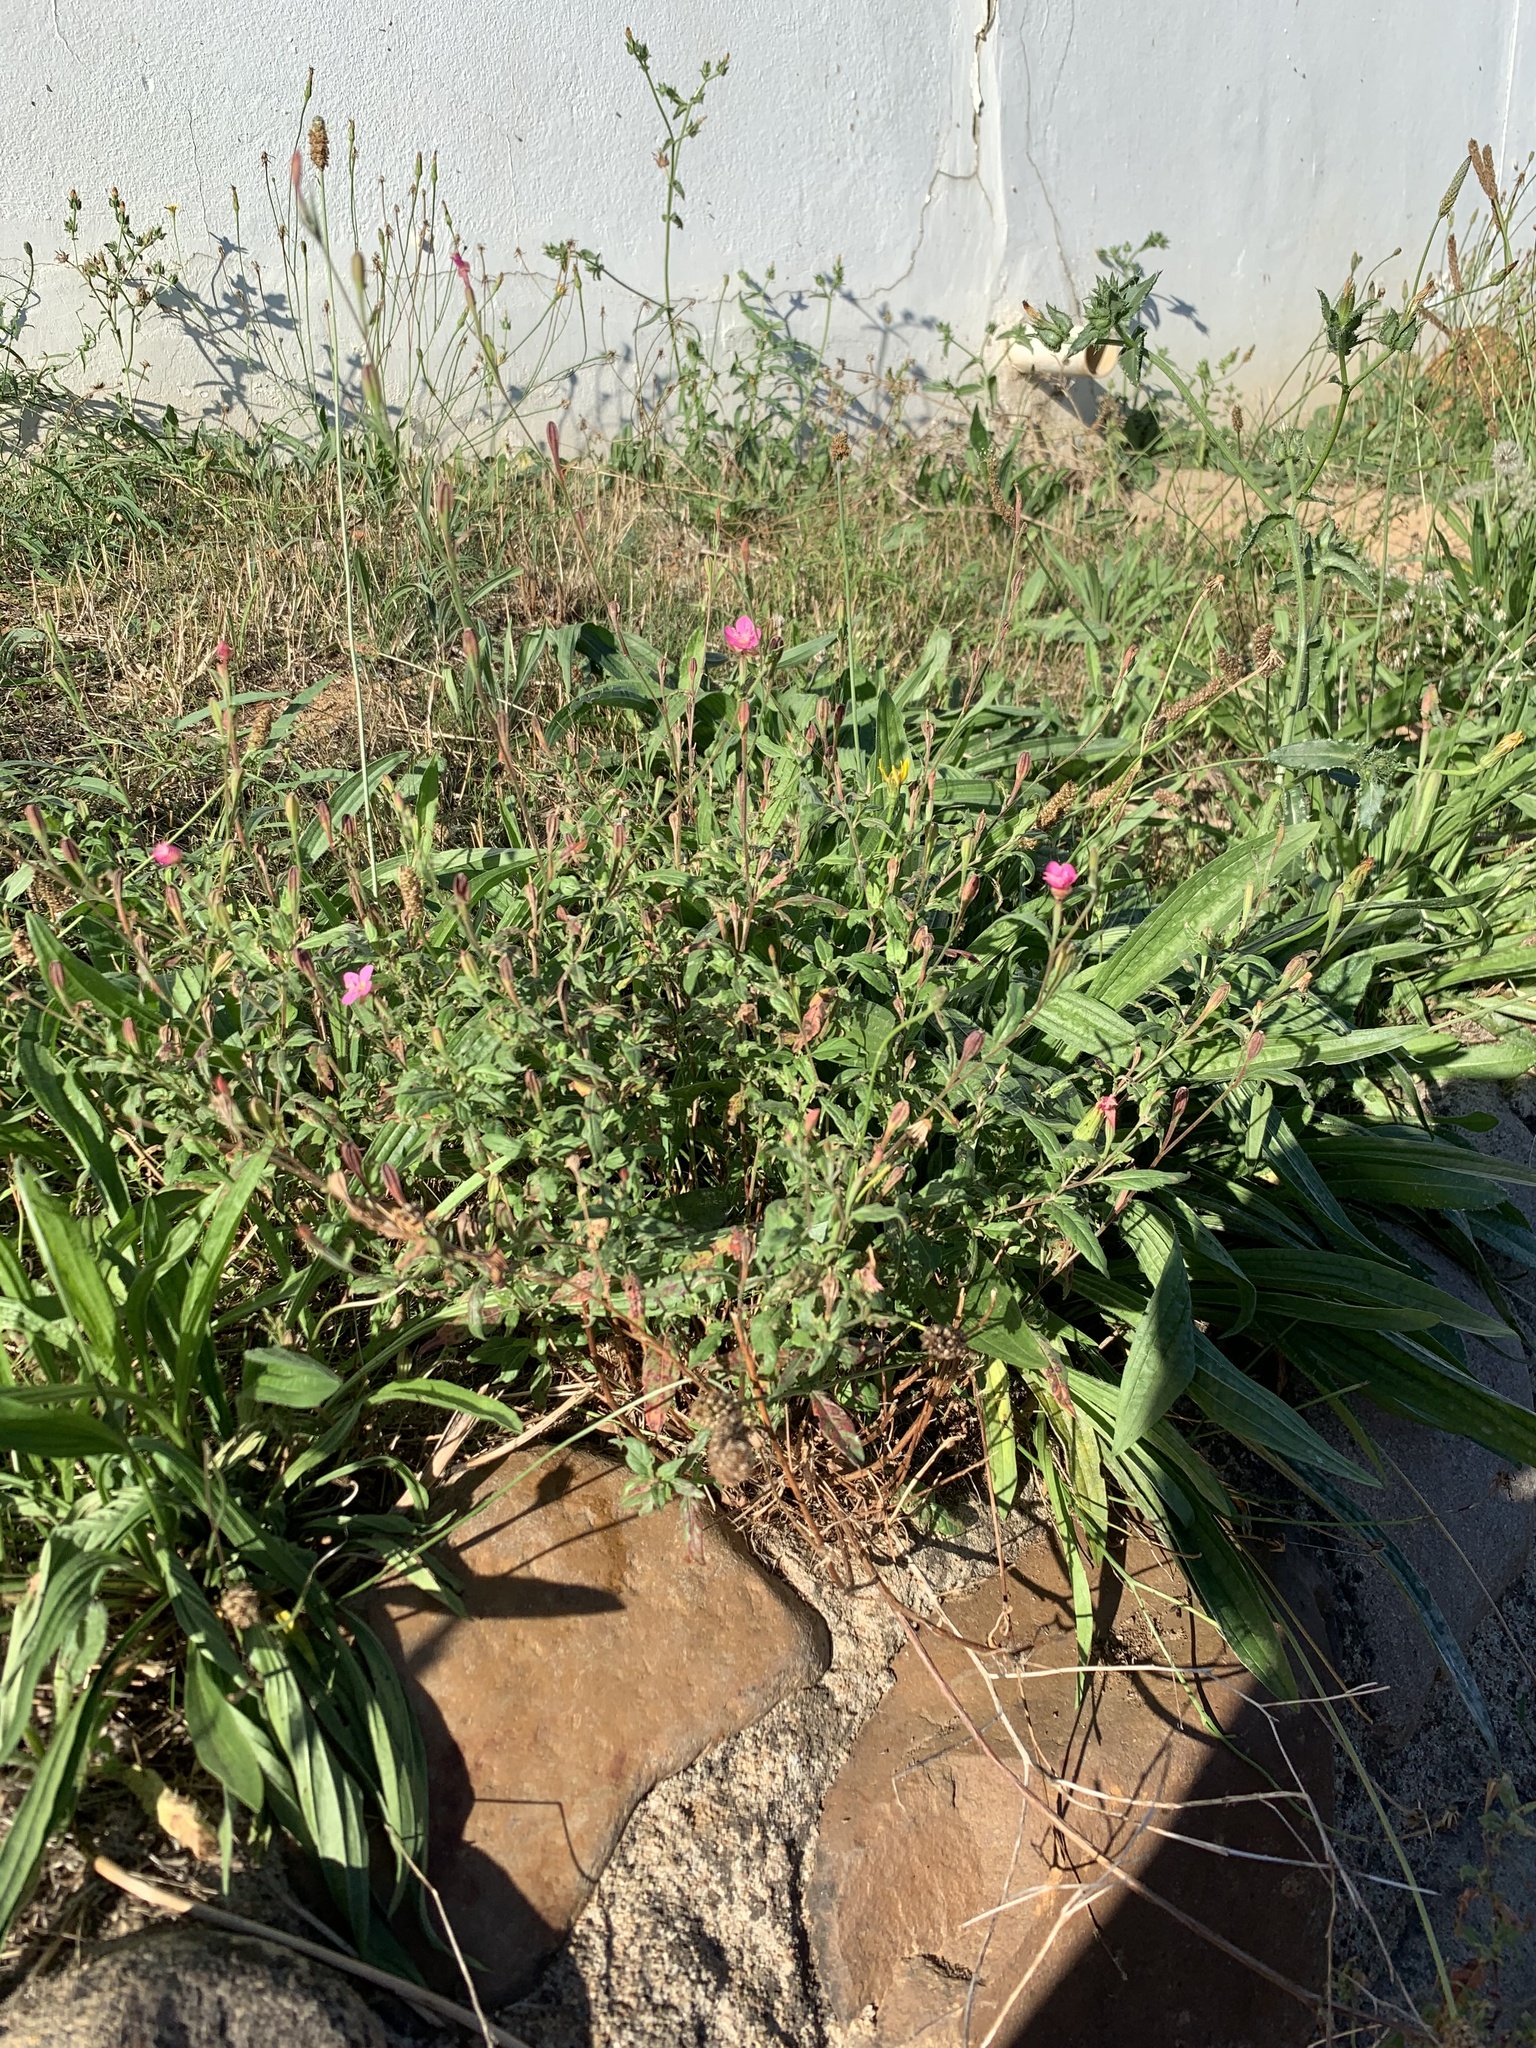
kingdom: Plantae
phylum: Tracheophyta
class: Magnoliopsida
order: Myrtales
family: Onagraceae
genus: Oenothera
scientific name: Oenothera rosea
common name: Rosy evening-primrose
